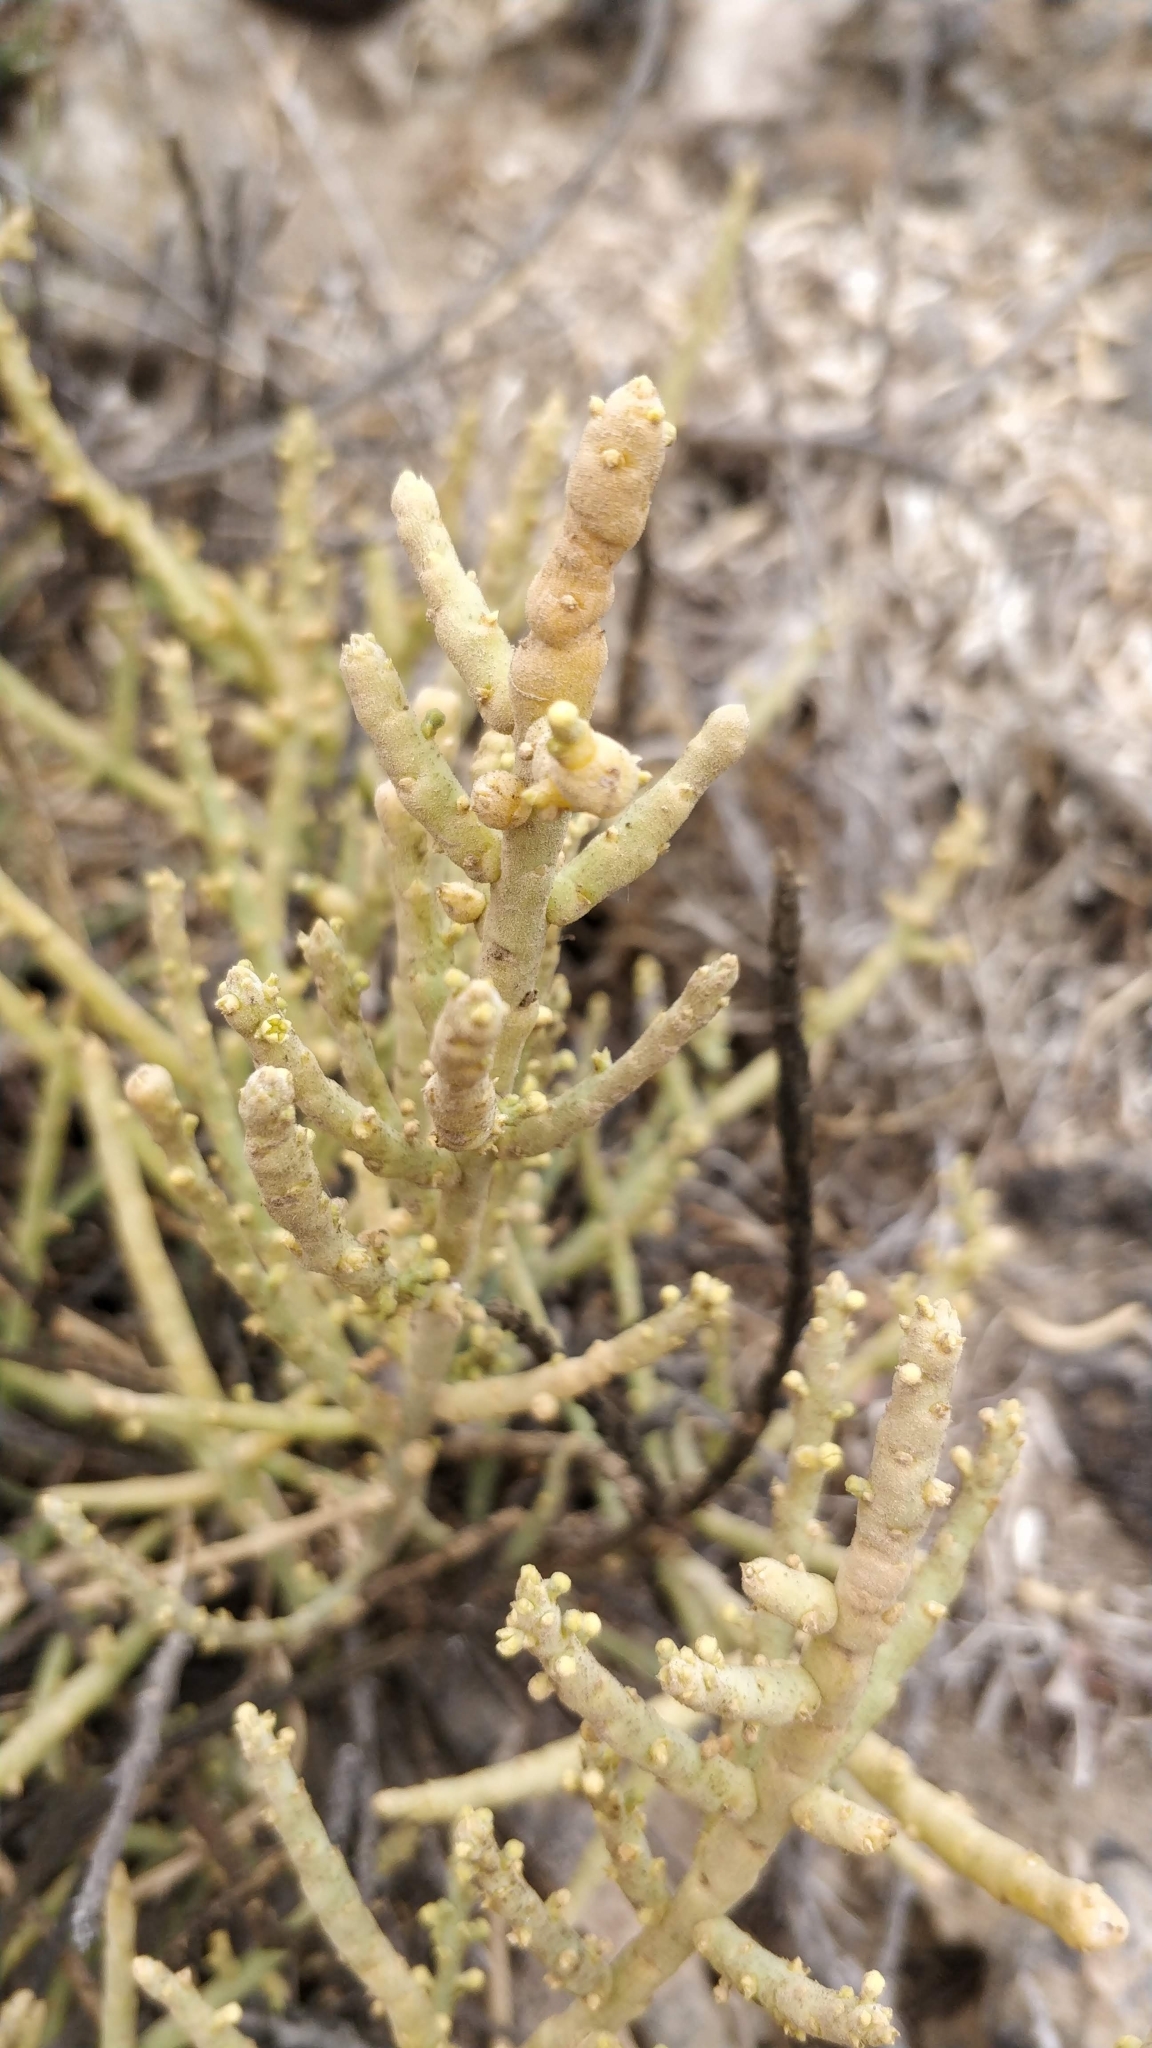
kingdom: Plantae
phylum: Tracheophyta
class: Magnoliopsida
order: Santalales
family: Thesiaceae
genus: Thesium
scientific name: Thesium subsucculentum
